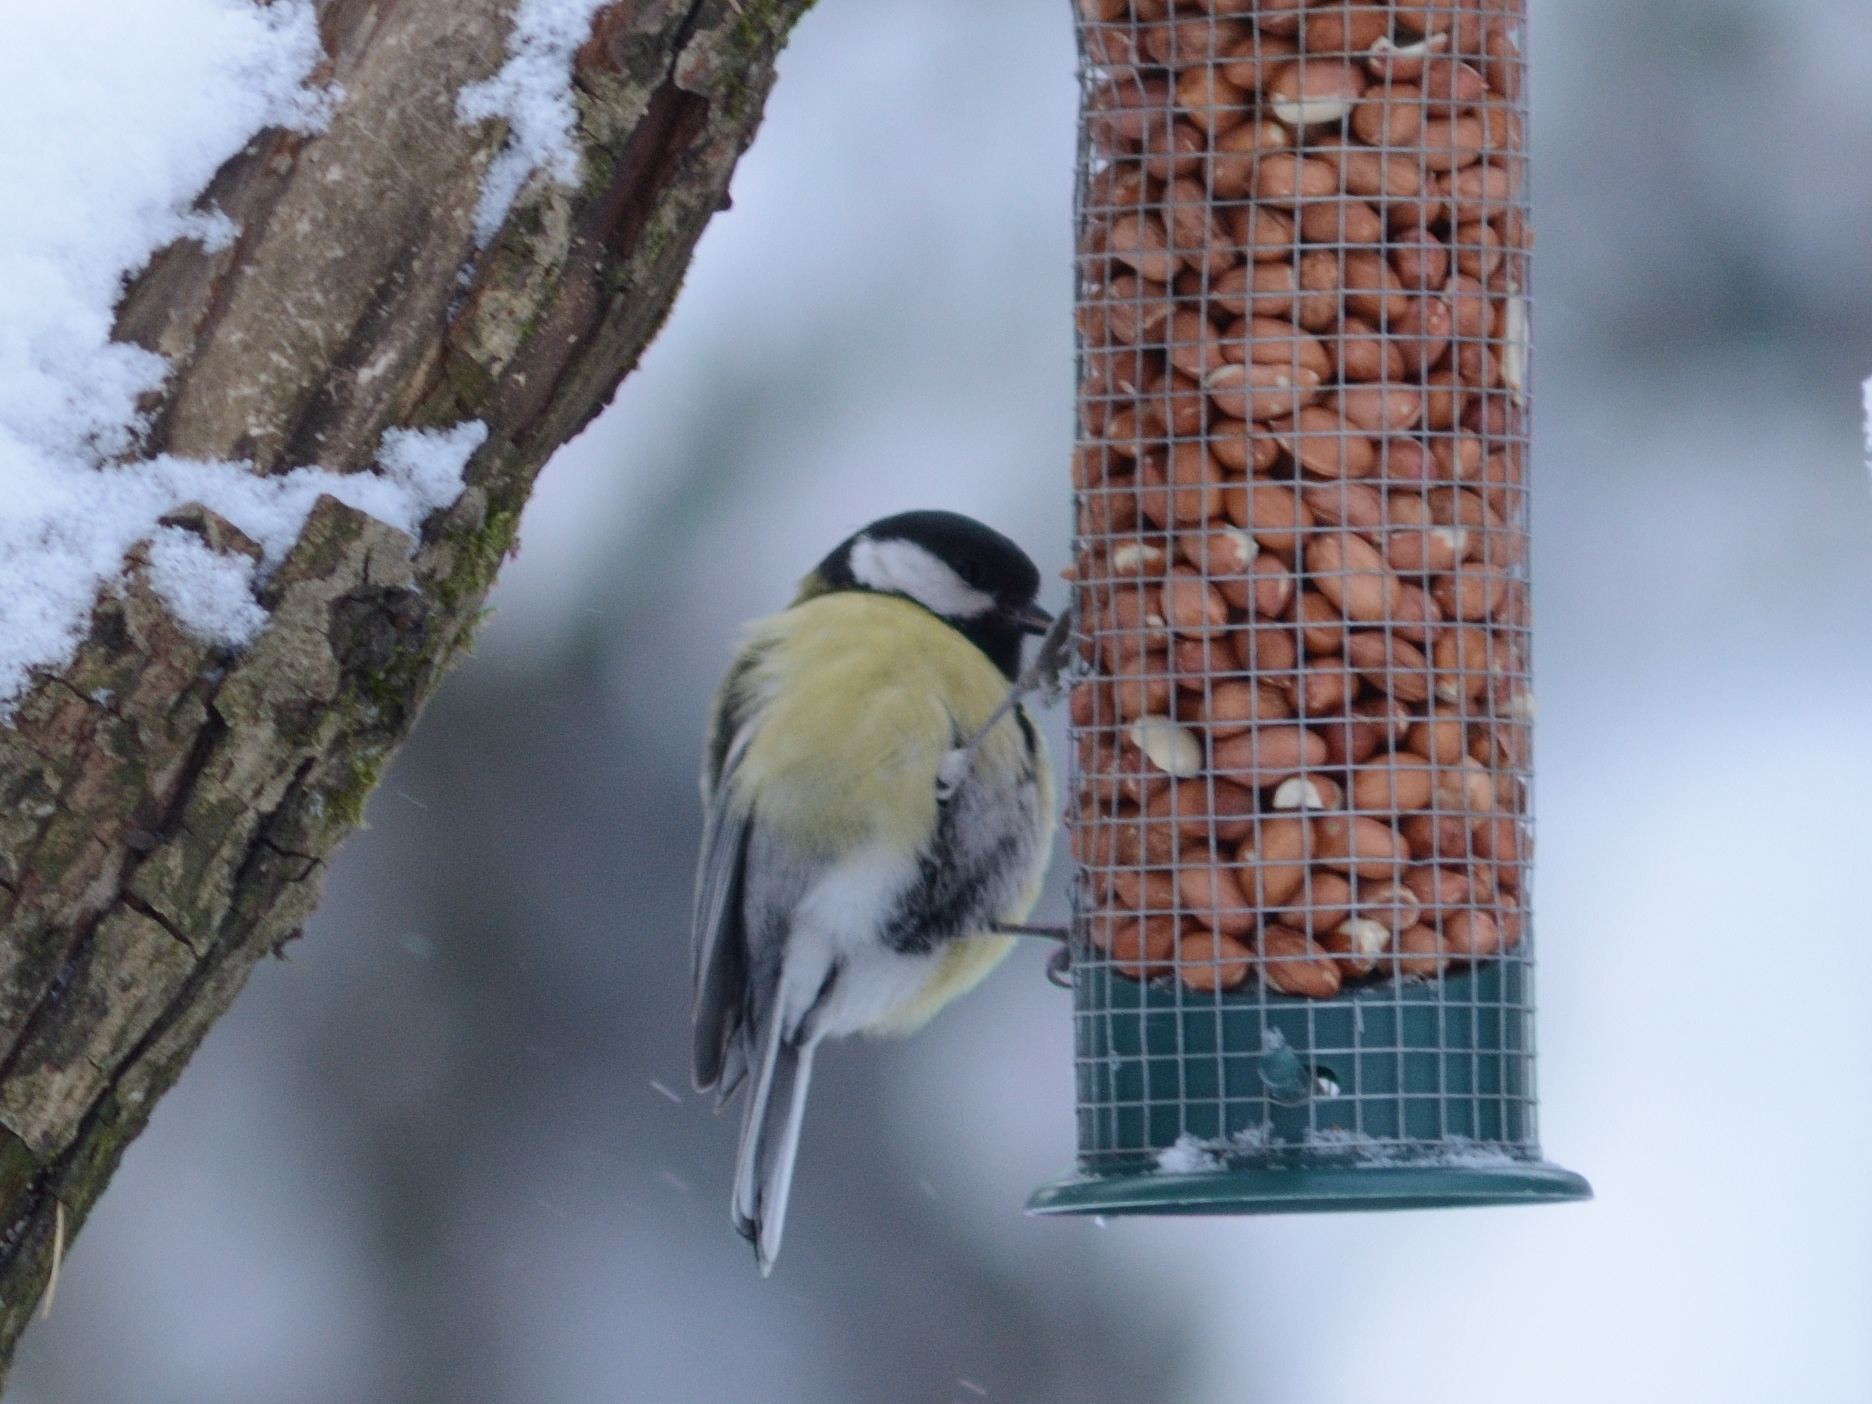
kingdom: Animalia
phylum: Chordata
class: Aves
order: Passeriformes
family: Paridae
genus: Parus
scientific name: Parus major
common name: Great tit
